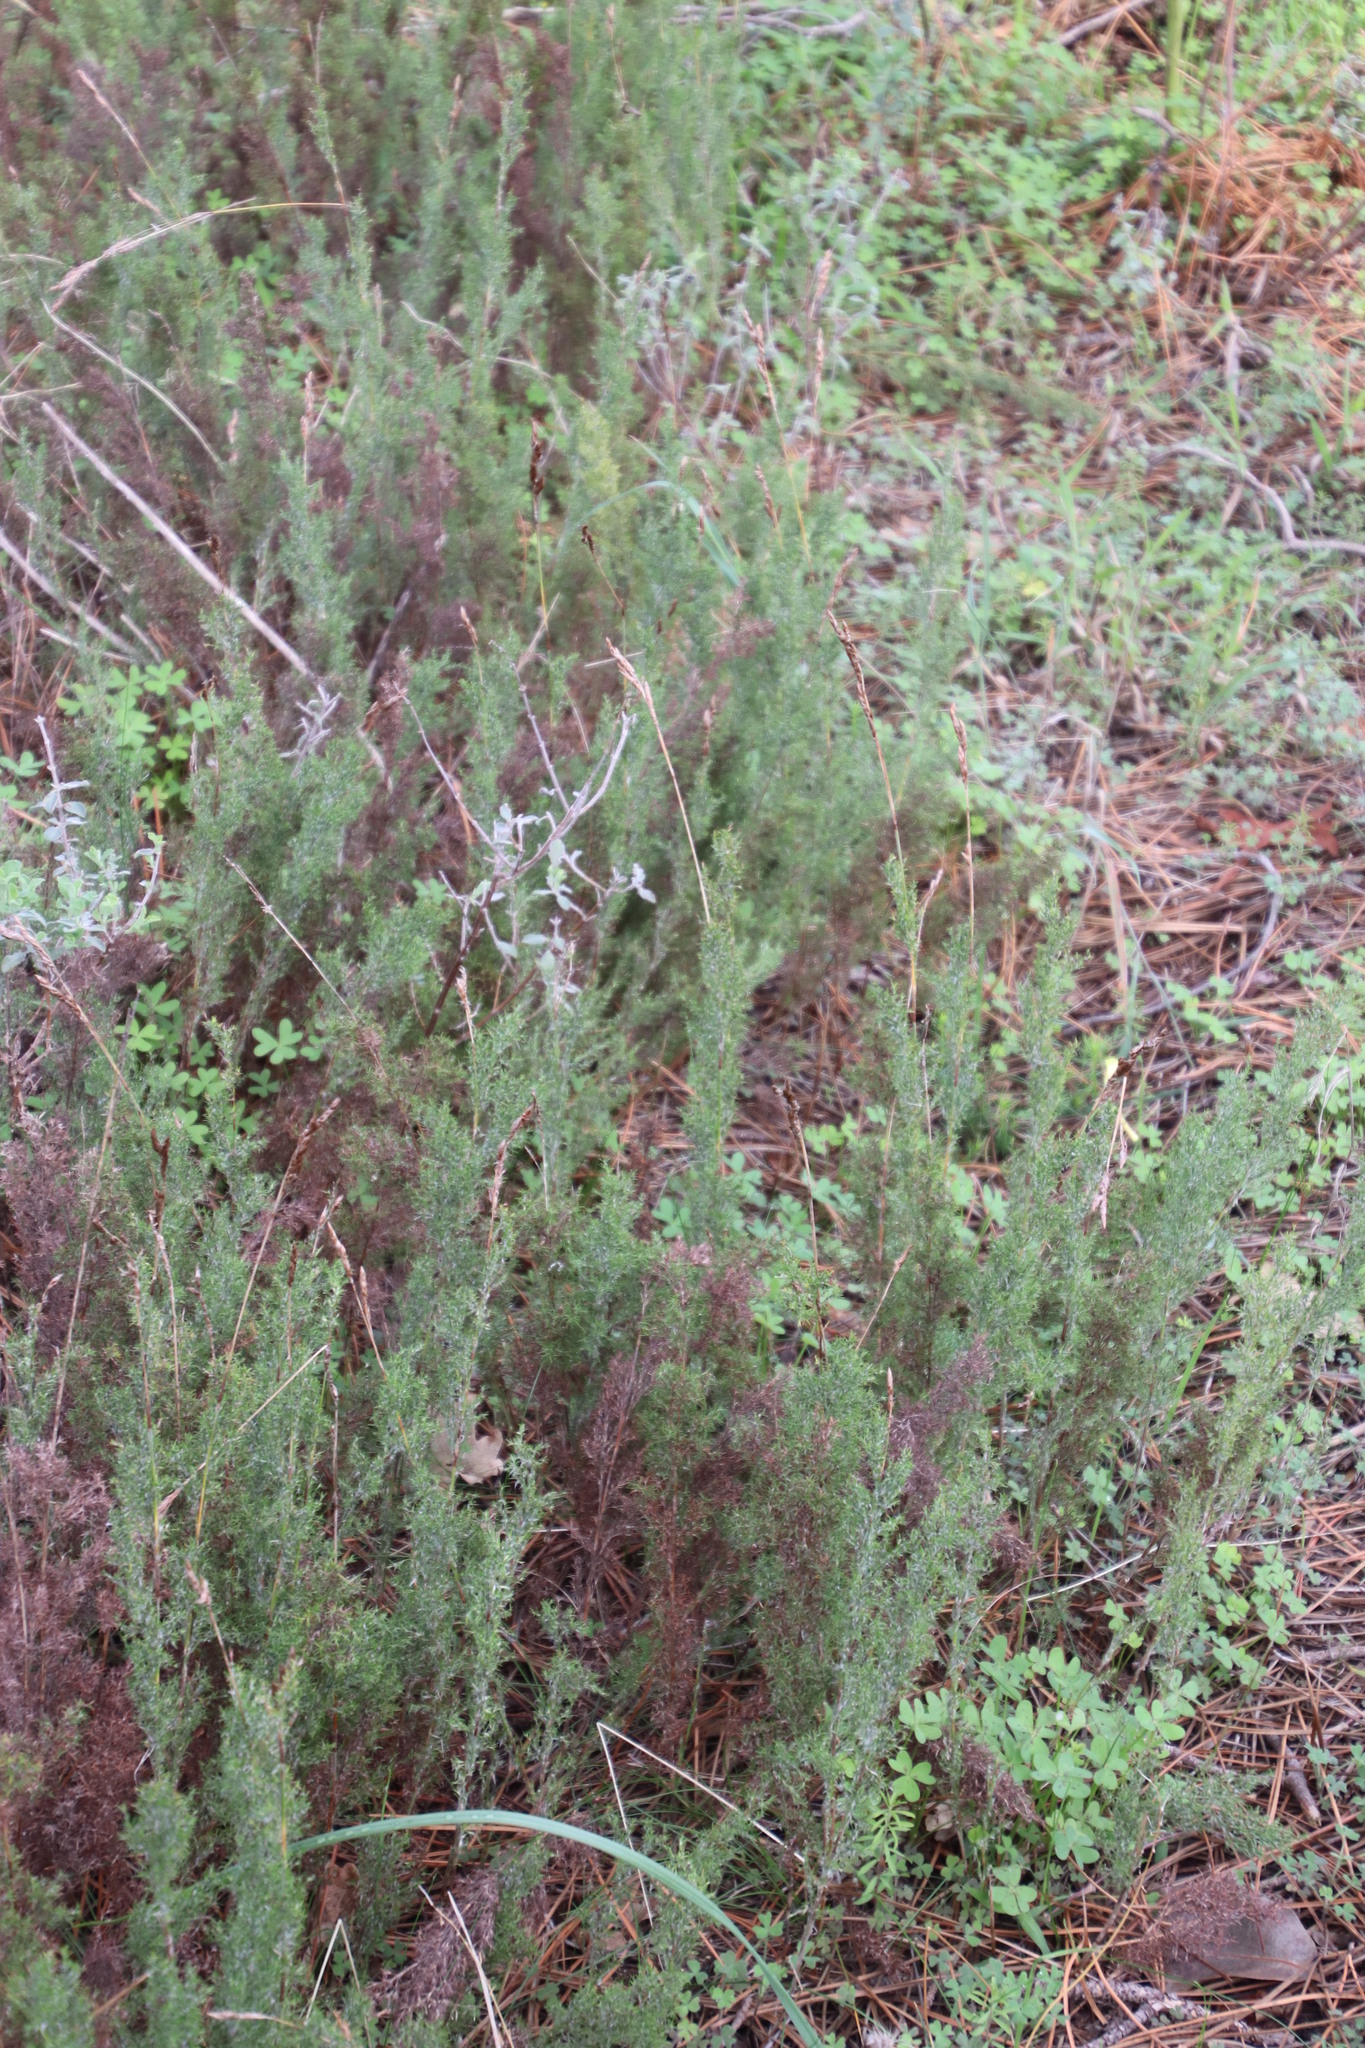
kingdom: Plantae
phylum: Tracheophyta
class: Liliopsida
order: Poales
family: Restionaceae
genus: Thamnochortus
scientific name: Thamnochortus fruticosus
